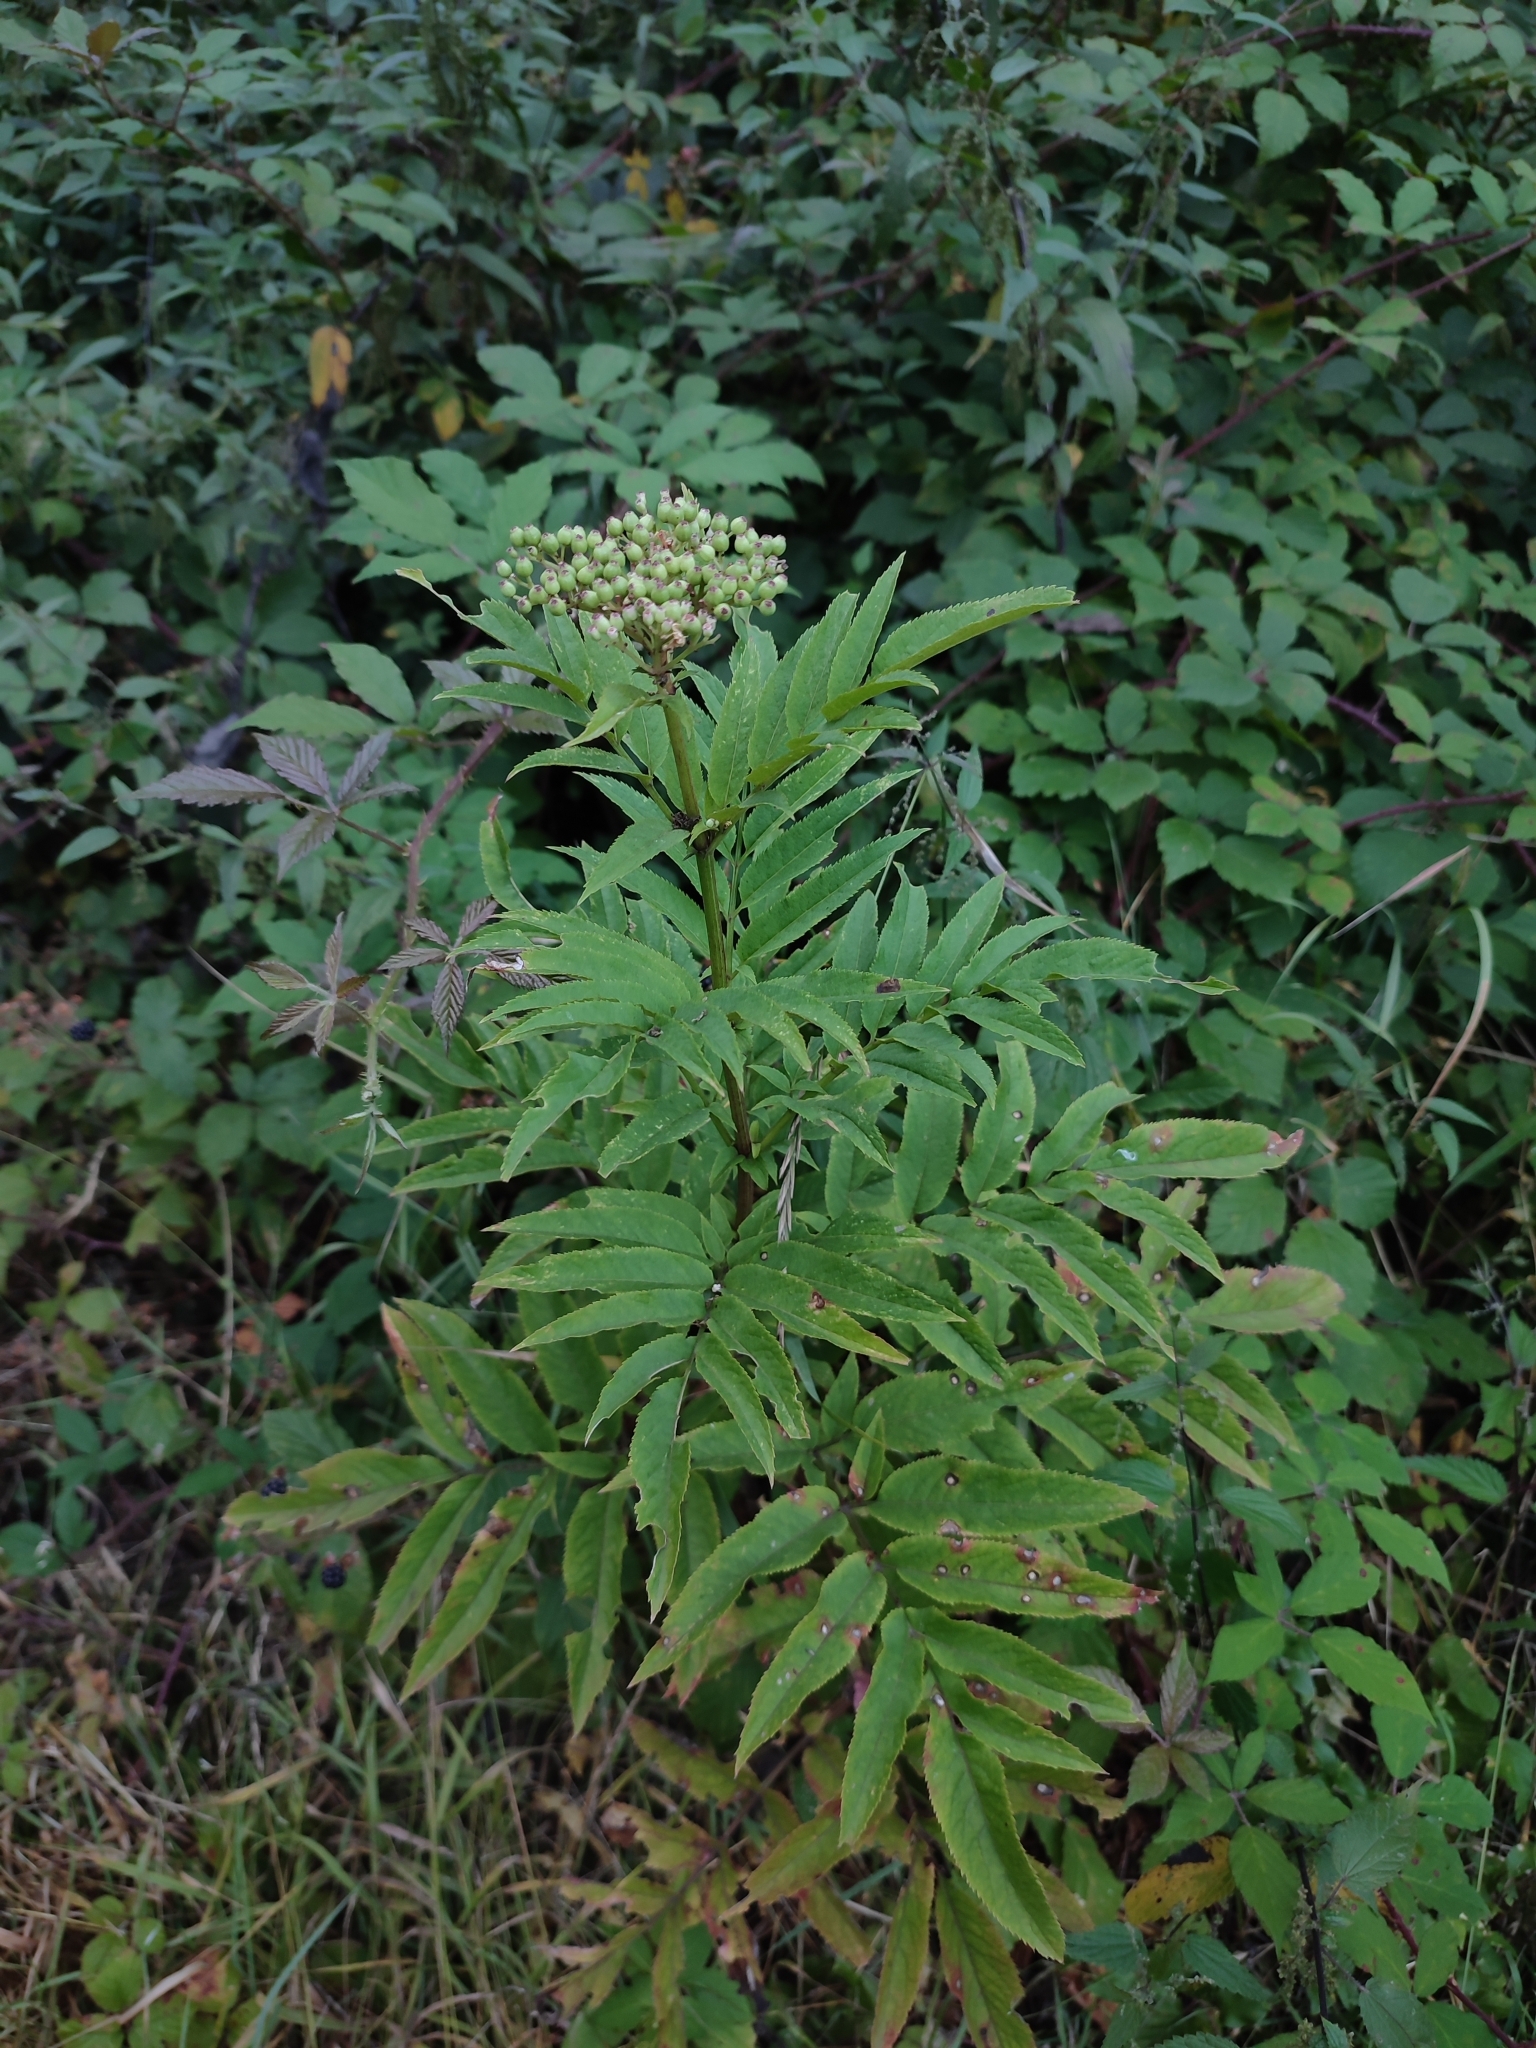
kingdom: Plantae
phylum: Tracheophyta
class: Magnoliopsida
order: Dipsacales
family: Viburnaceae
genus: Sambucus
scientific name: Sambucus ebulus
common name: Dwarf elder
